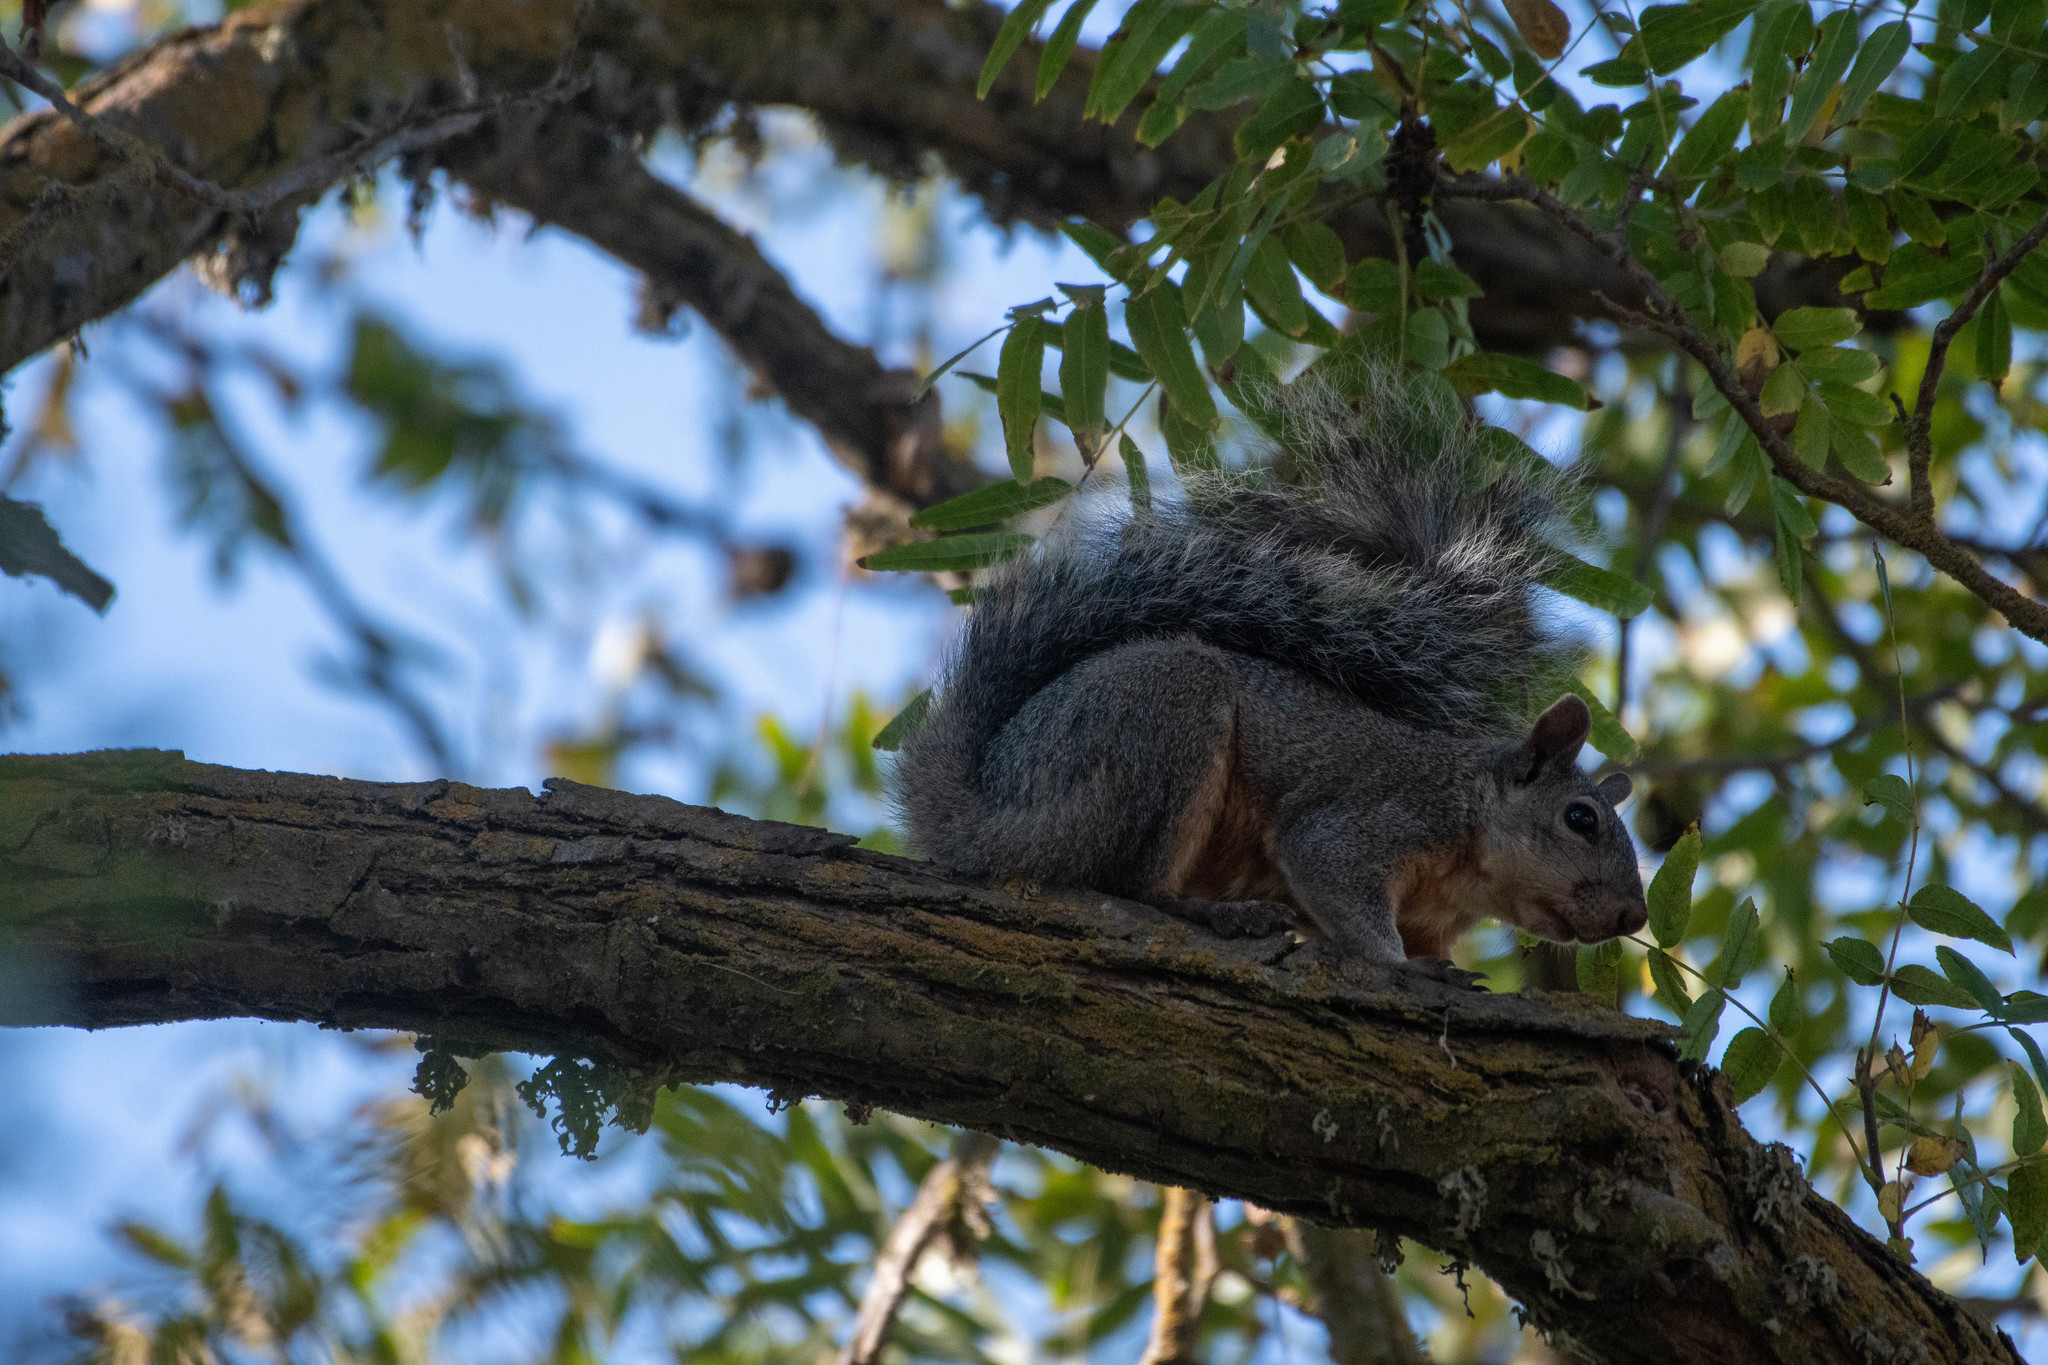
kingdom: Animalia
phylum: Chordata
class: Mammalia
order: Rodentia
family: Sciuridae
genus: Sciurus
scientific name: Sciurus griseus
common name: Western gray squirrel
